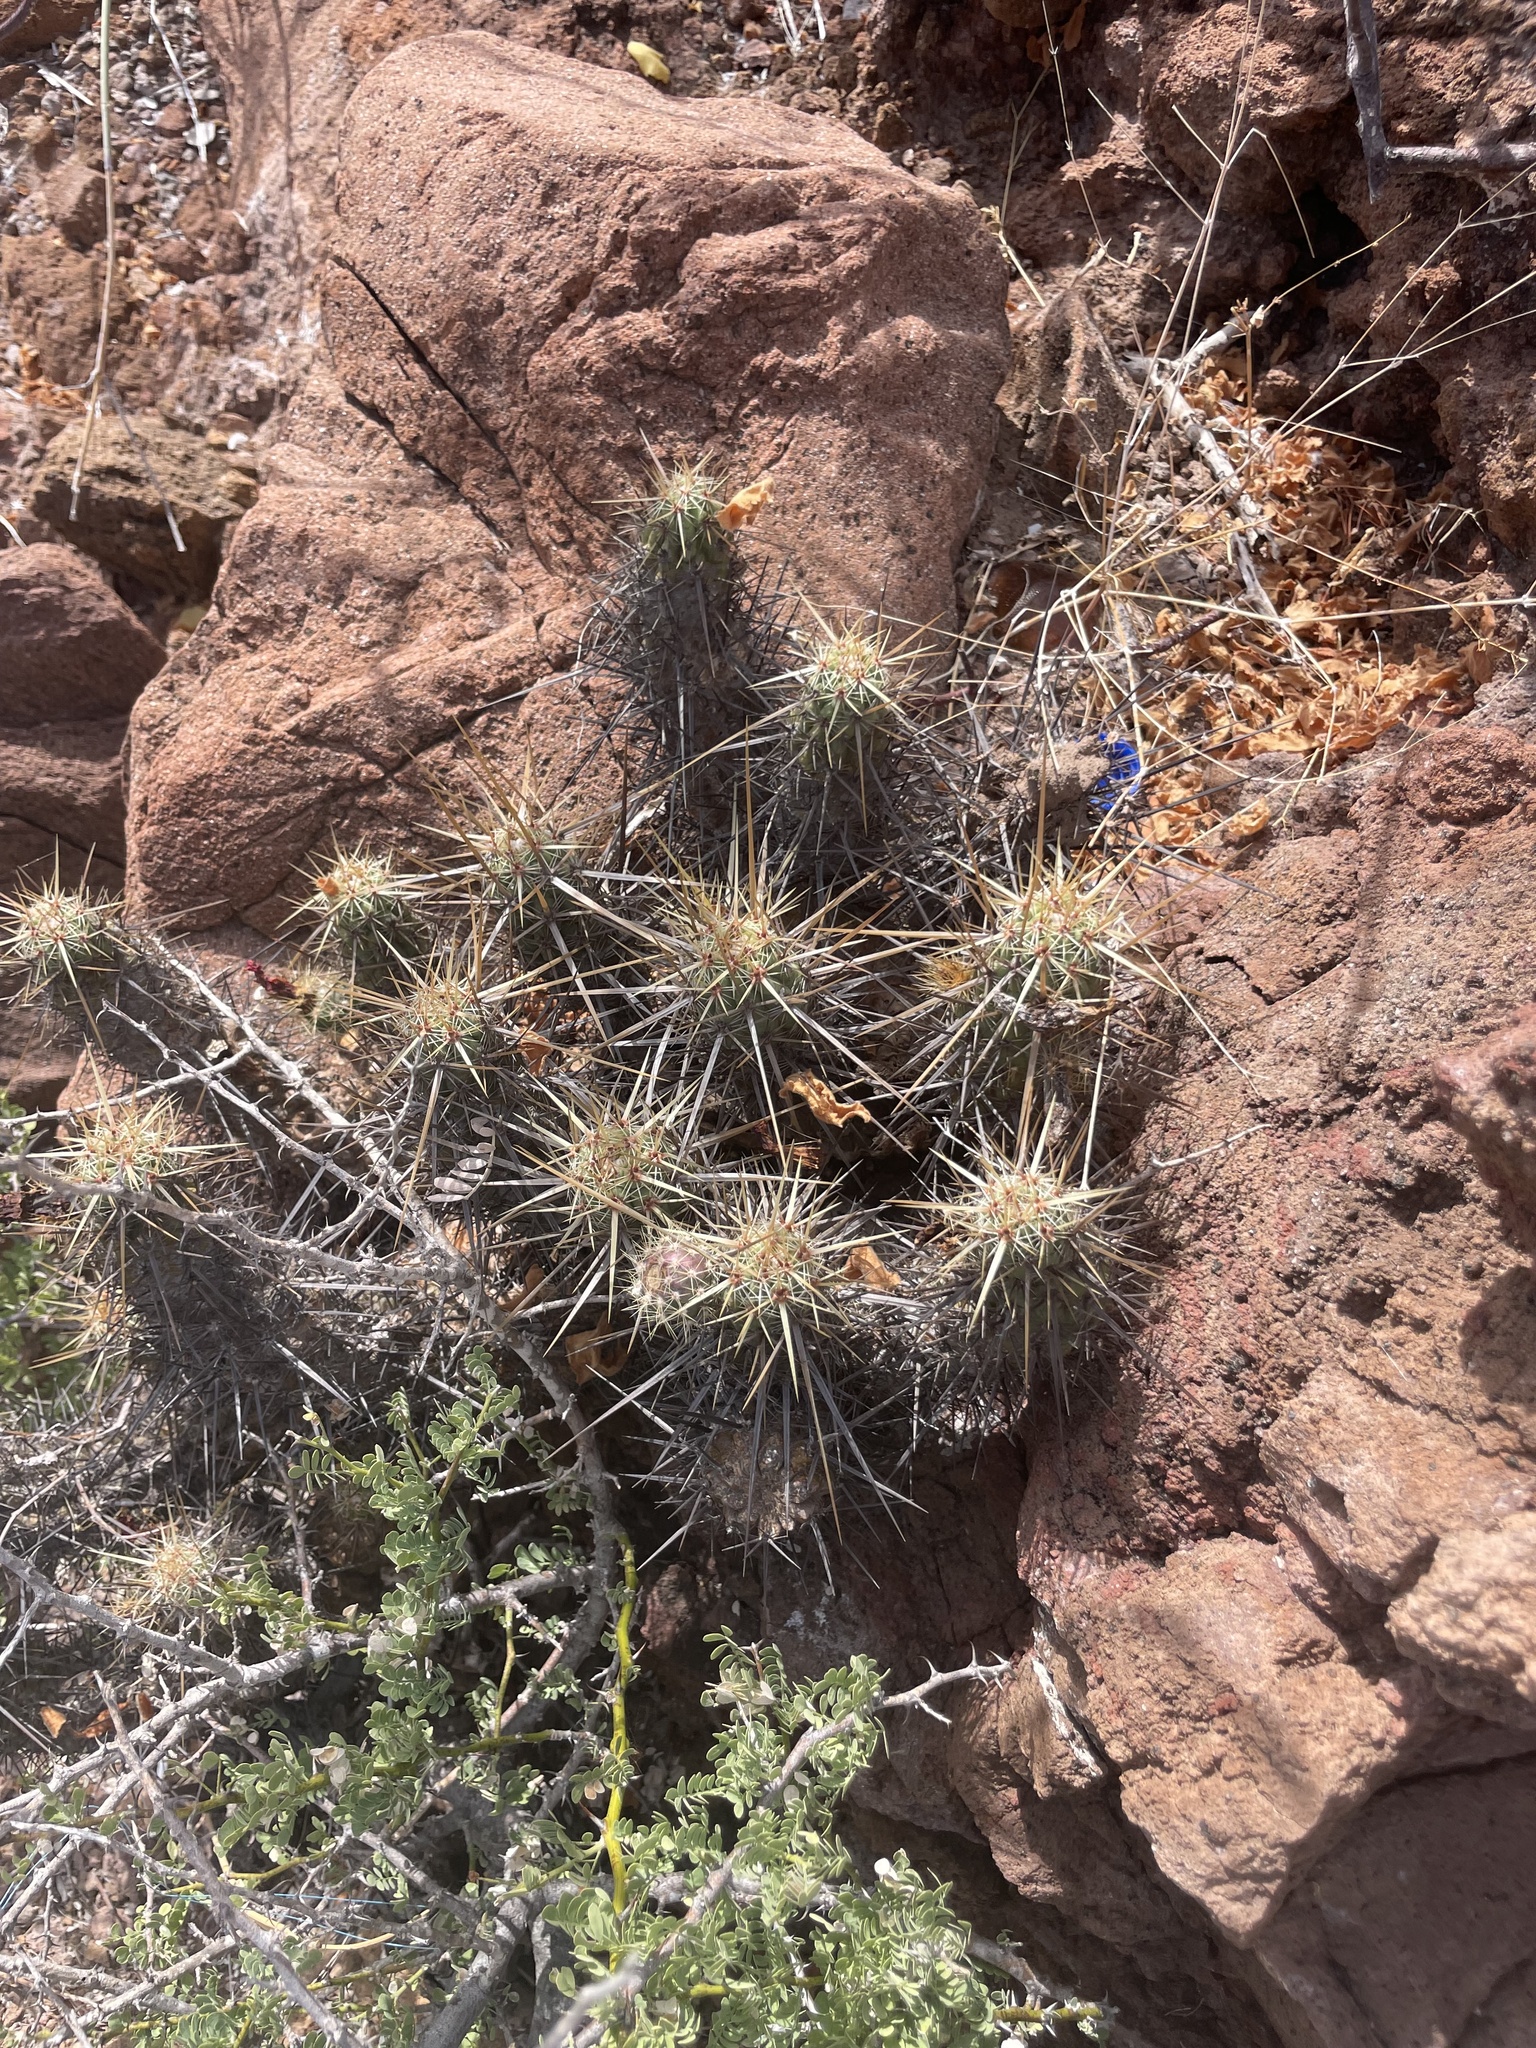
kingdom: Plantae
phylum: Tracheophyta
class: Magnoliopsida
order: Caryophyllales
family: Cactaceae
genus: Echinocereus
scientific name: Echinocereus brandegeei
